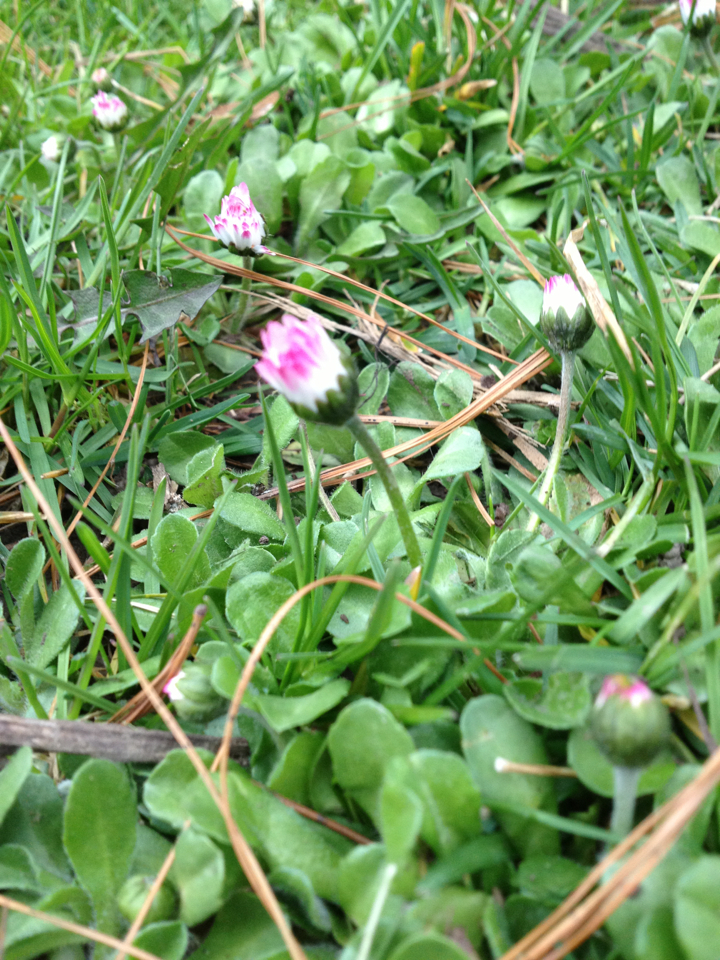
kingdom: Plantae
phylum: Tracheophyta
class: Magnoliopsida
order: Asterales
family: Asteraceae
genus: Bellis
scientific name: Bellis perennis
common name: Lawndaisy
